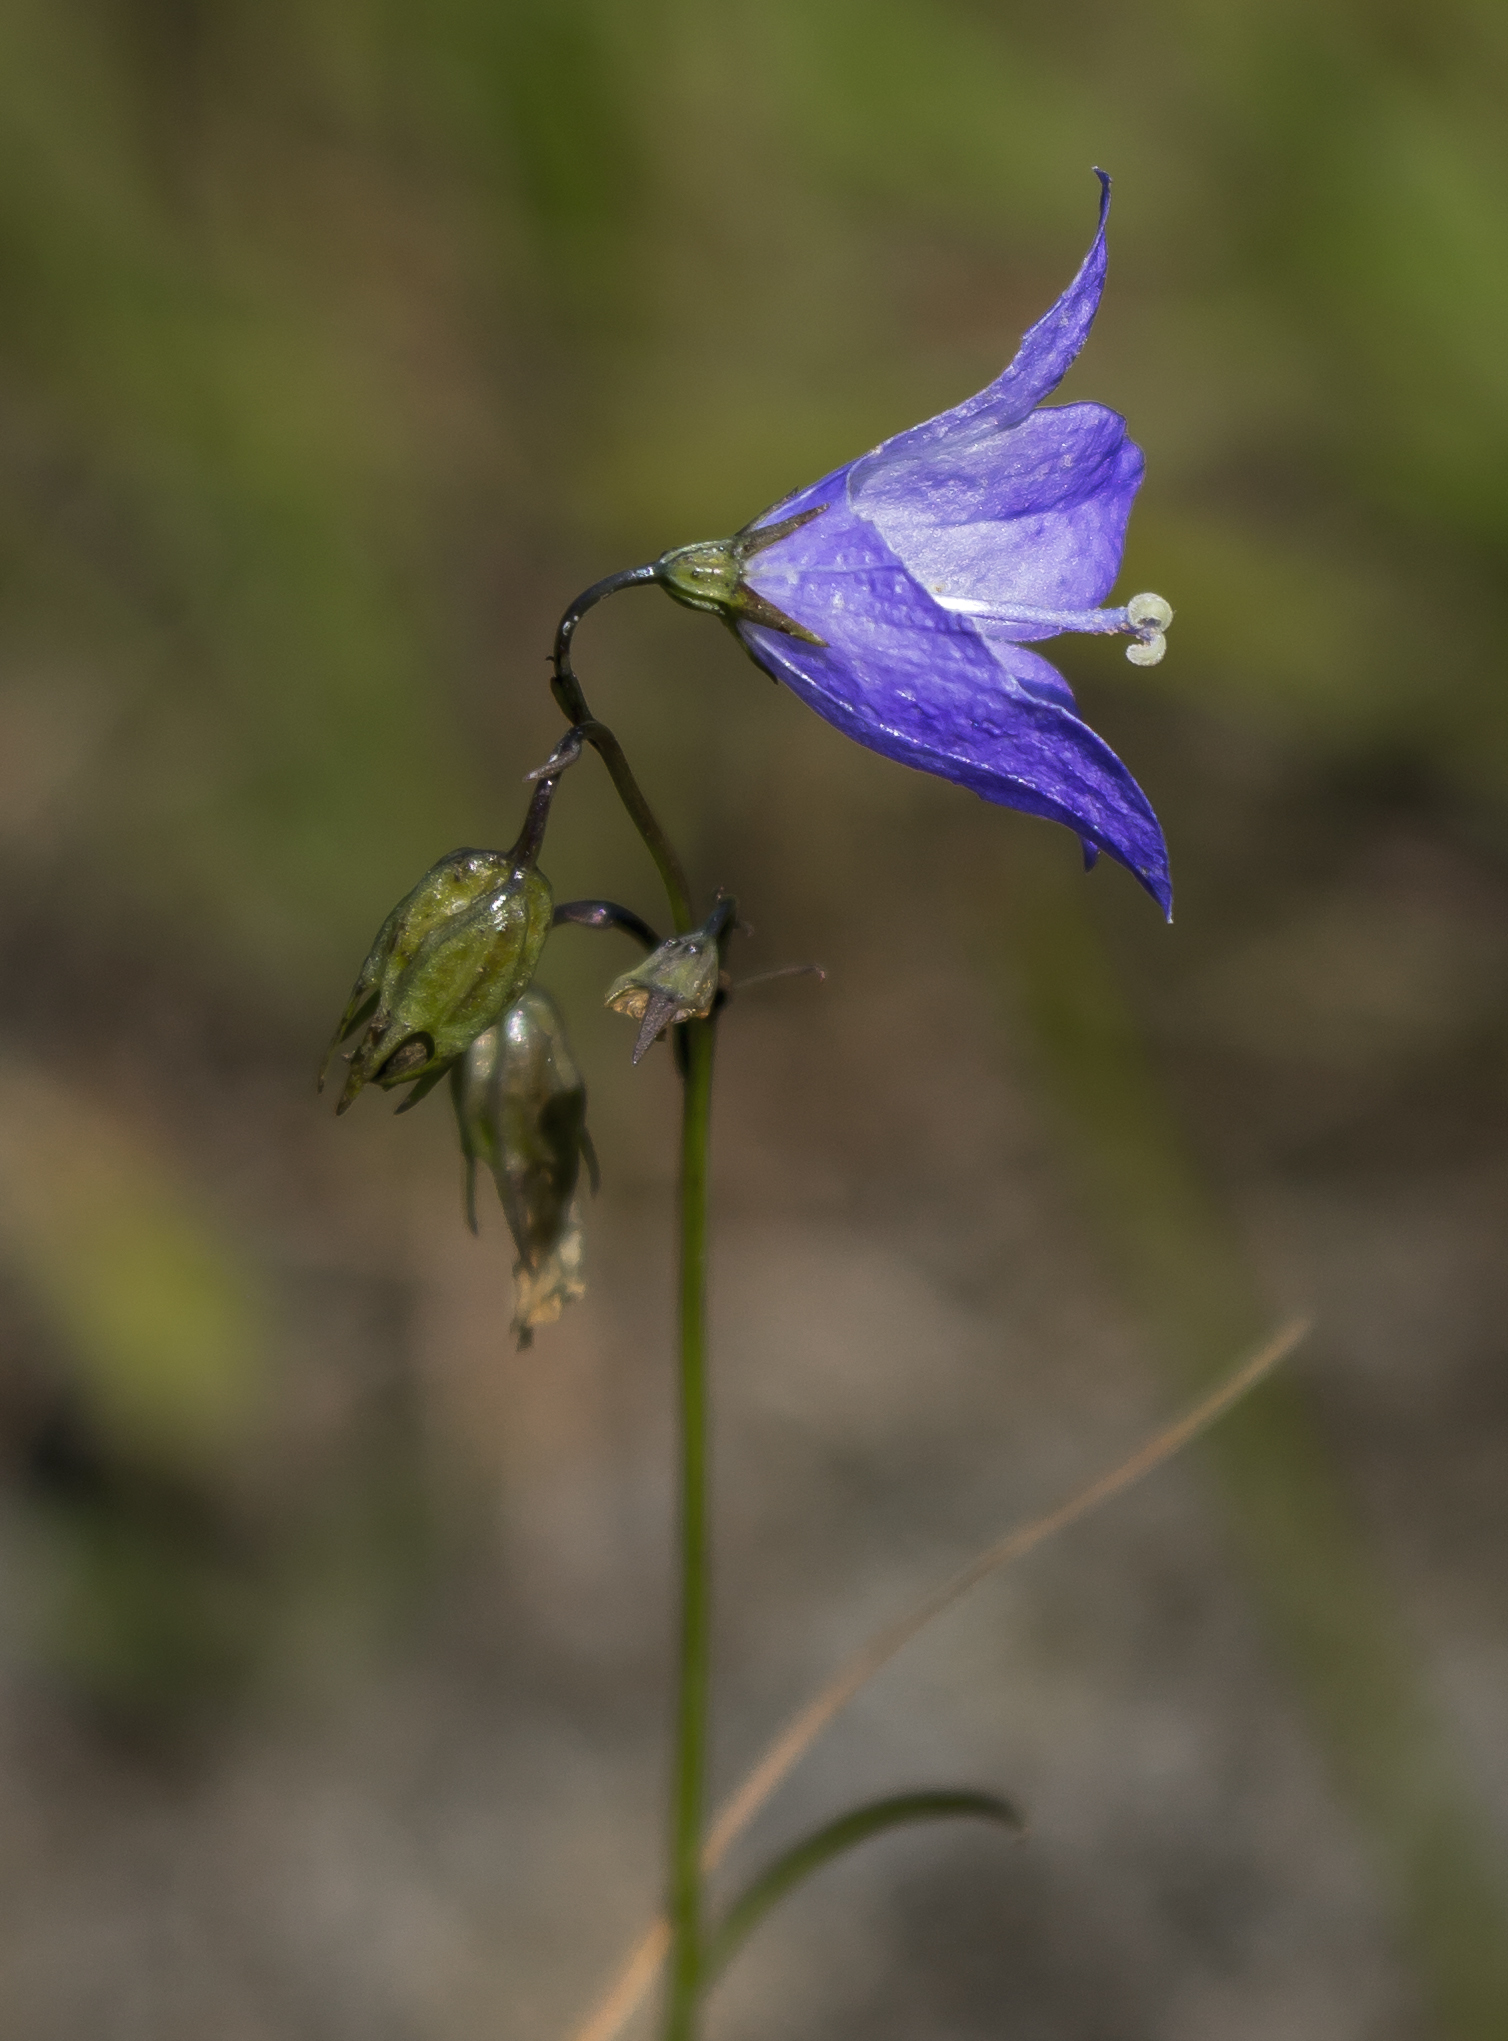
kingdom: Plantae
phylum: Tracheophyta
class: Magnoliopsida
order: Asterales
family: Campanulaceae
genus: Campanula
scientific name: Campanula intercedens
